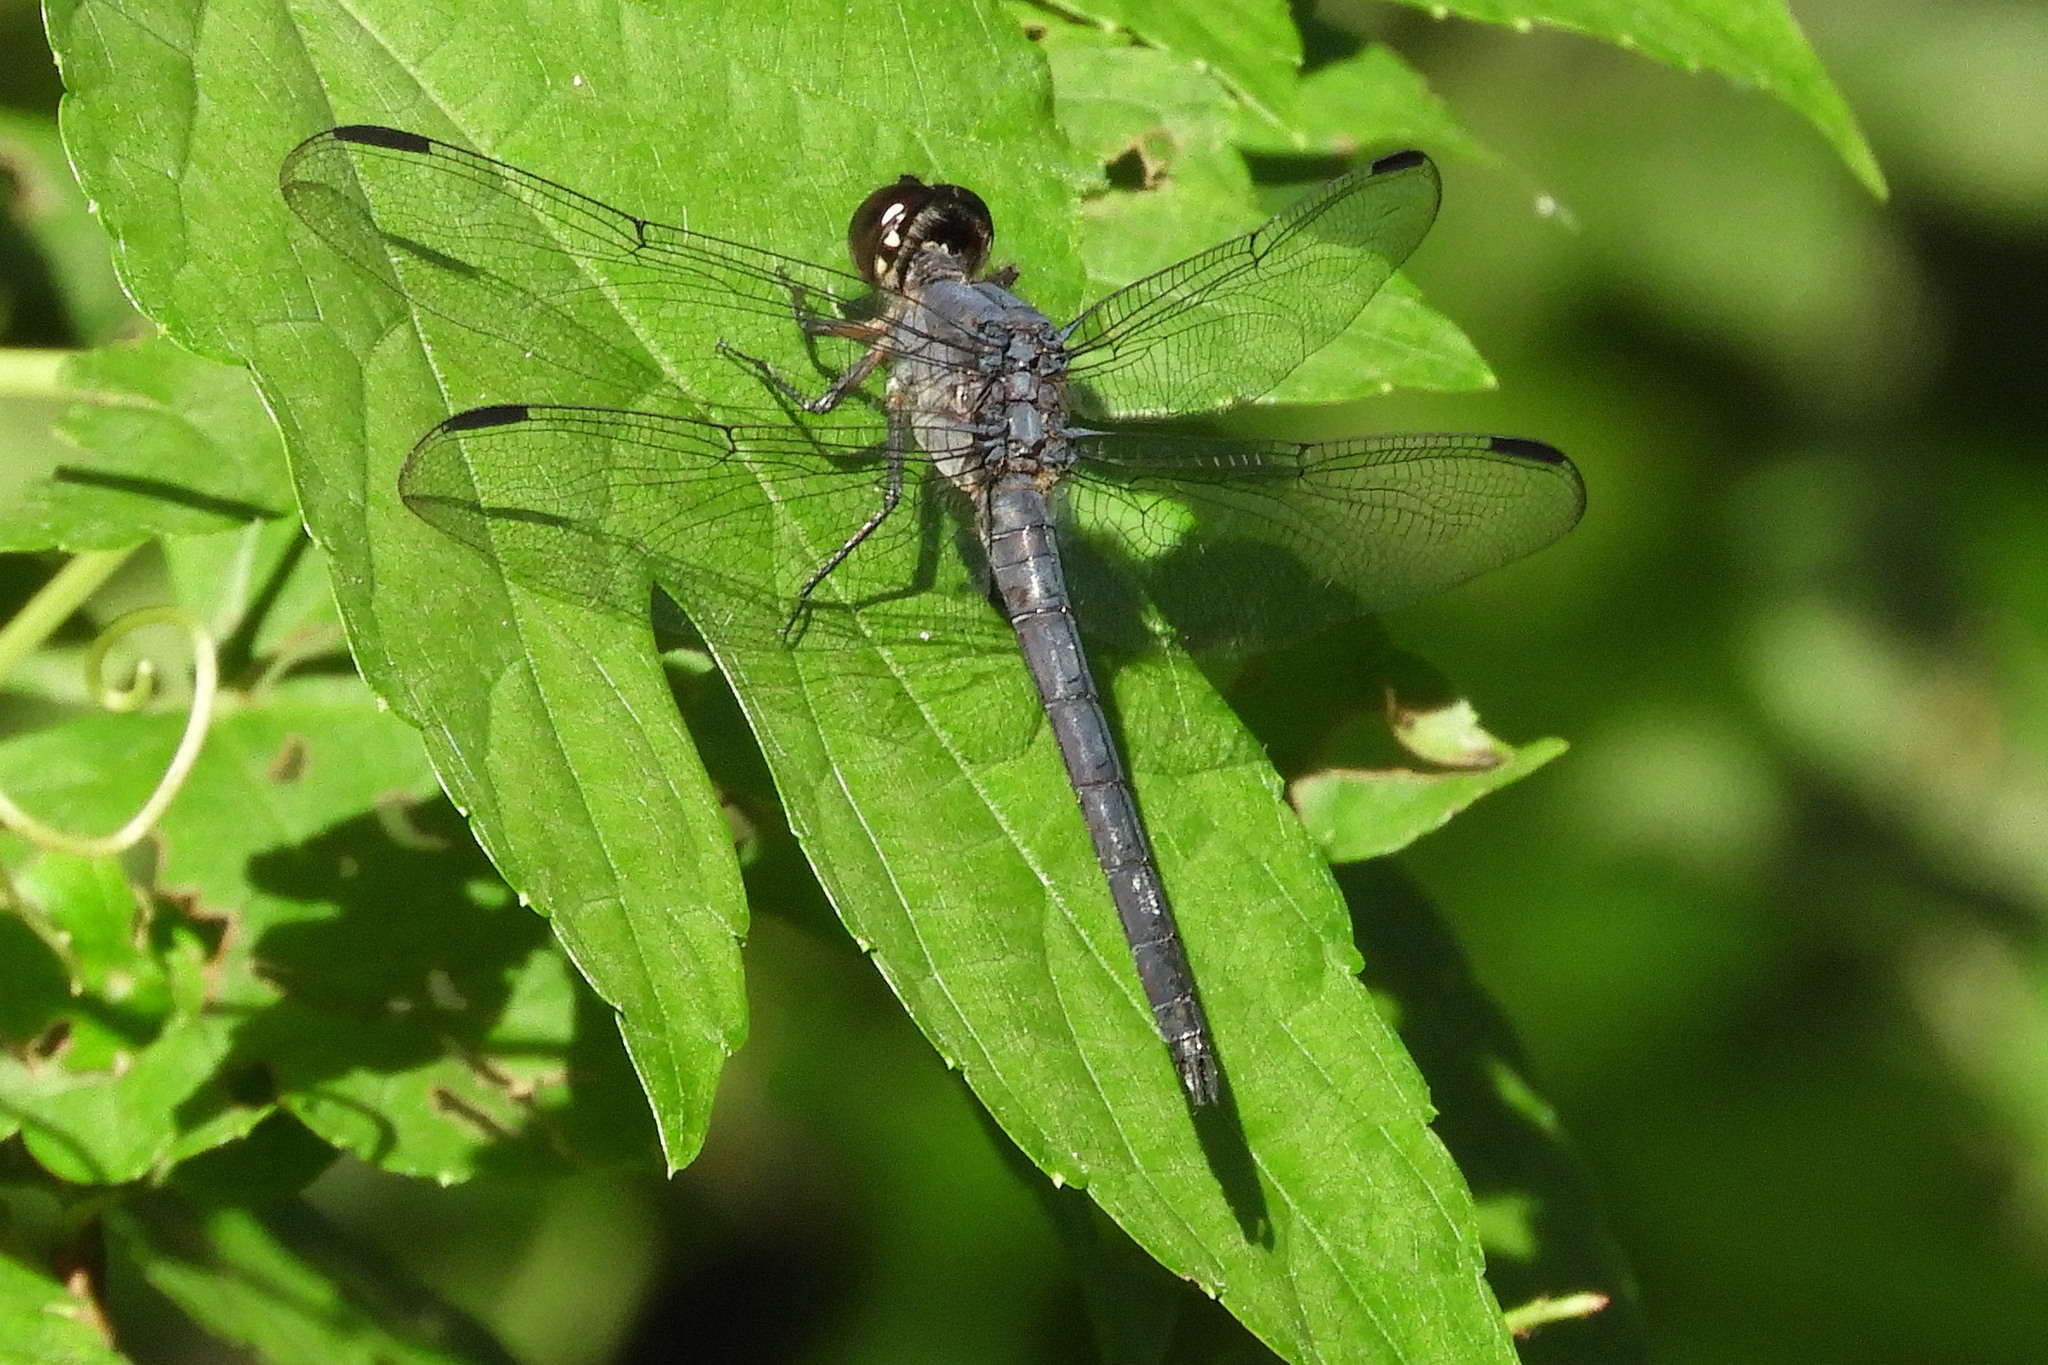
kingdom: Animalia
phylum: Arthropoda
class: Insecta
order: Odonata
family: Libellulidae
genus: Libellula
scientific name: Libellula incesta
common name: Slaty skimmer
